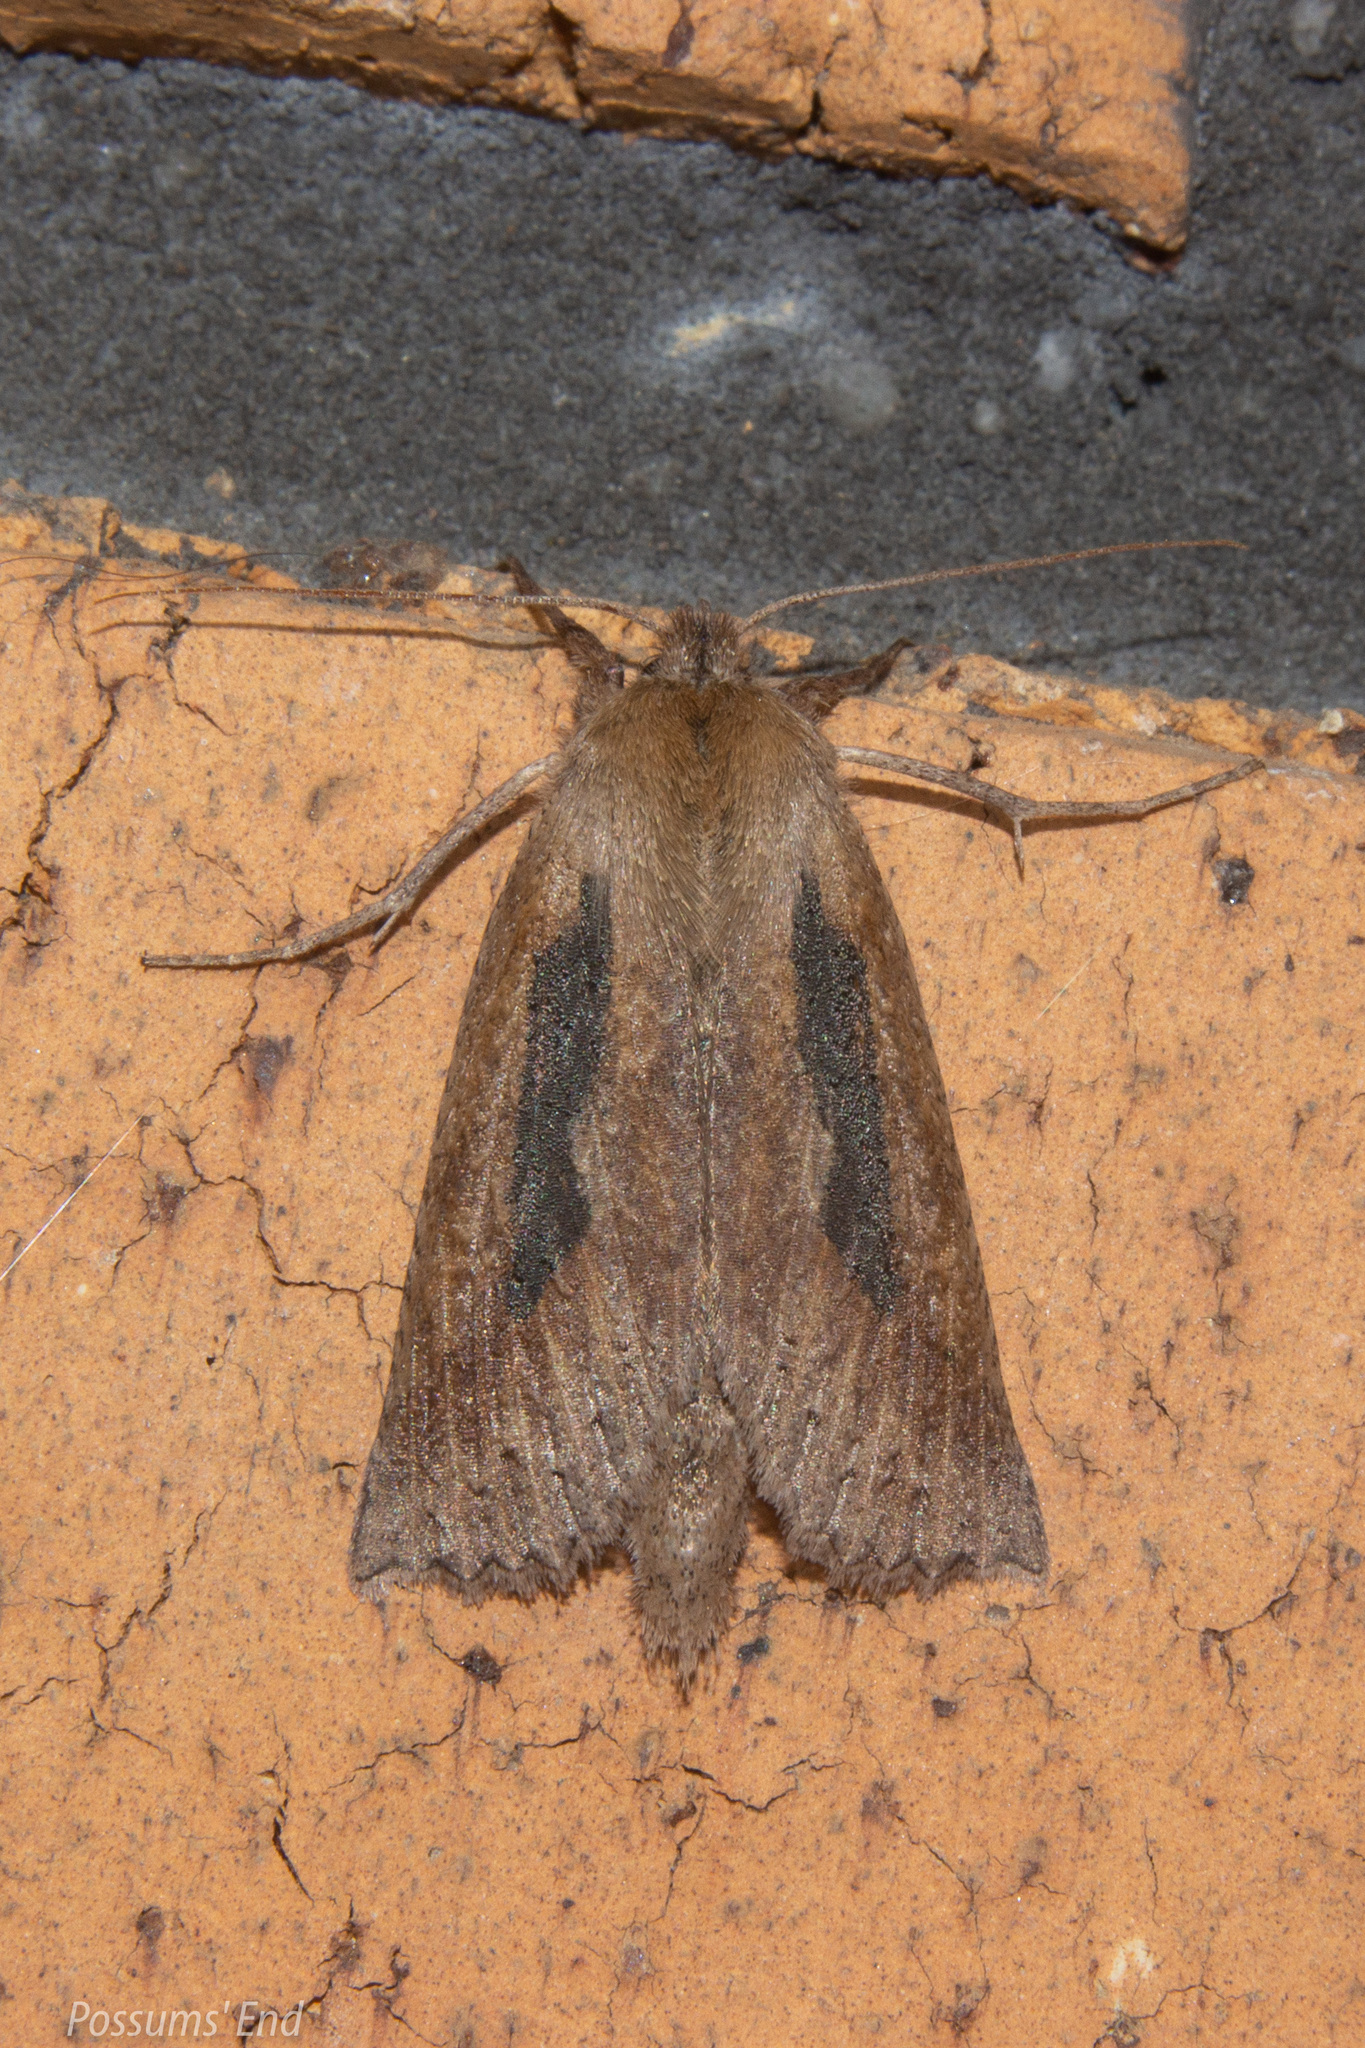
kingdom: Animalia
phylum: Arthropoda
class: Insecta
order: Lepidoptera
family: Geometridae
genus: Declana
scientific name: Declana leptomera
